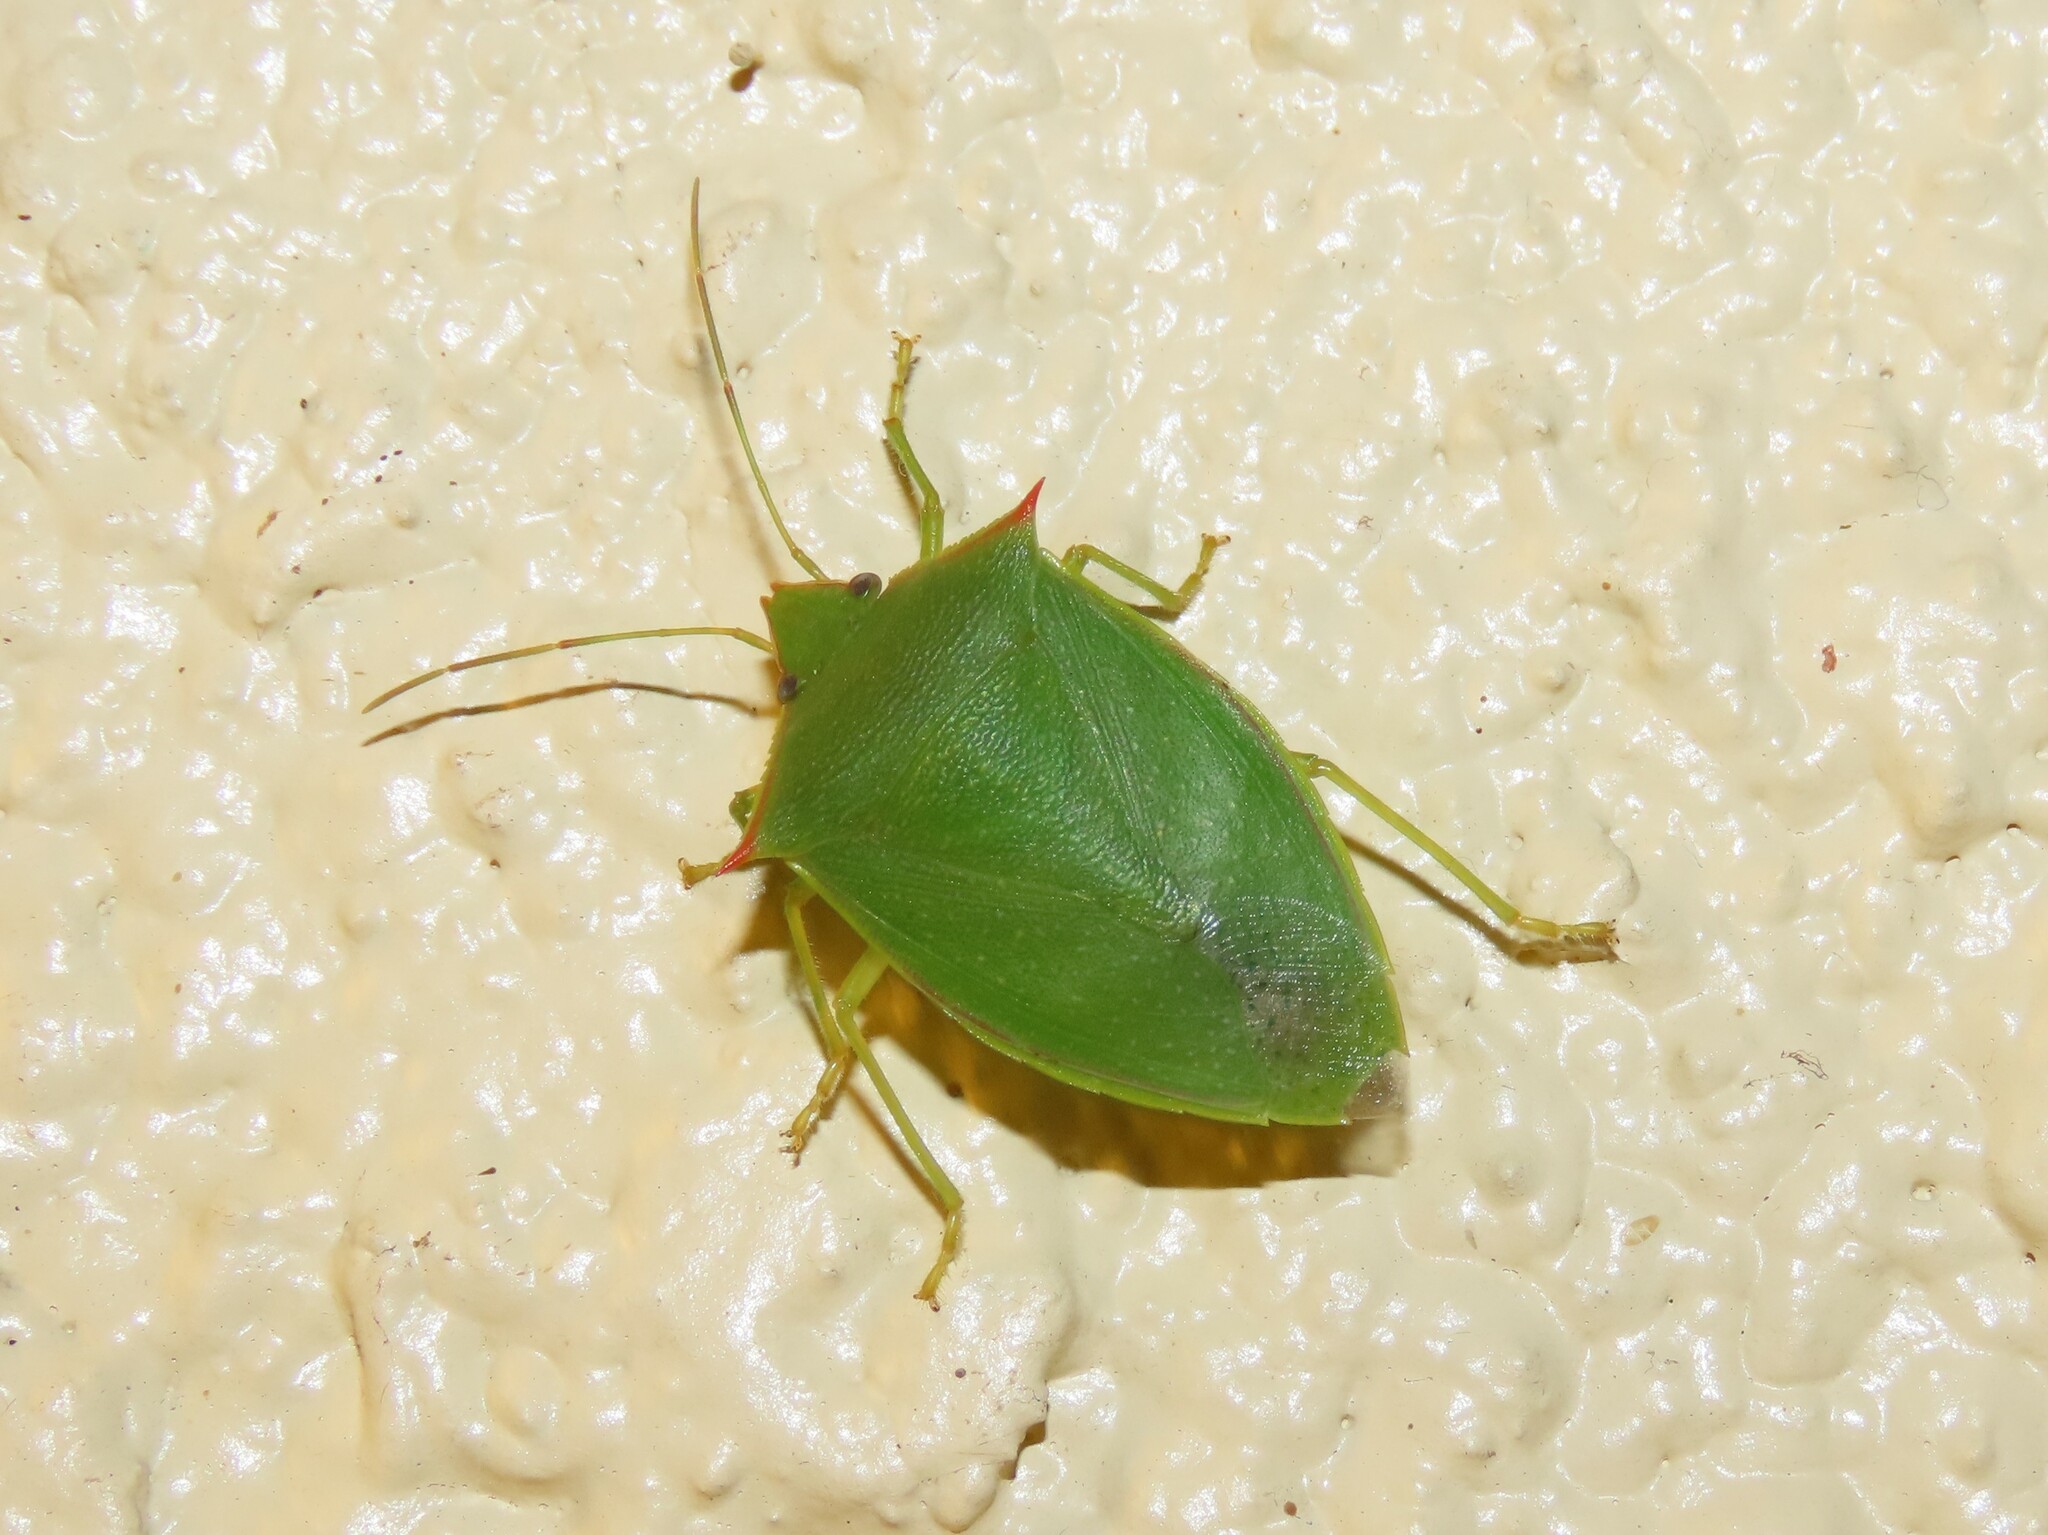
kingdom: Animalia
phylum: Arthropoda
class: Insecta
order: Hemiptera
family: Pentatomidae
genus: Loxa
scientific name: Loxa flavicollis
